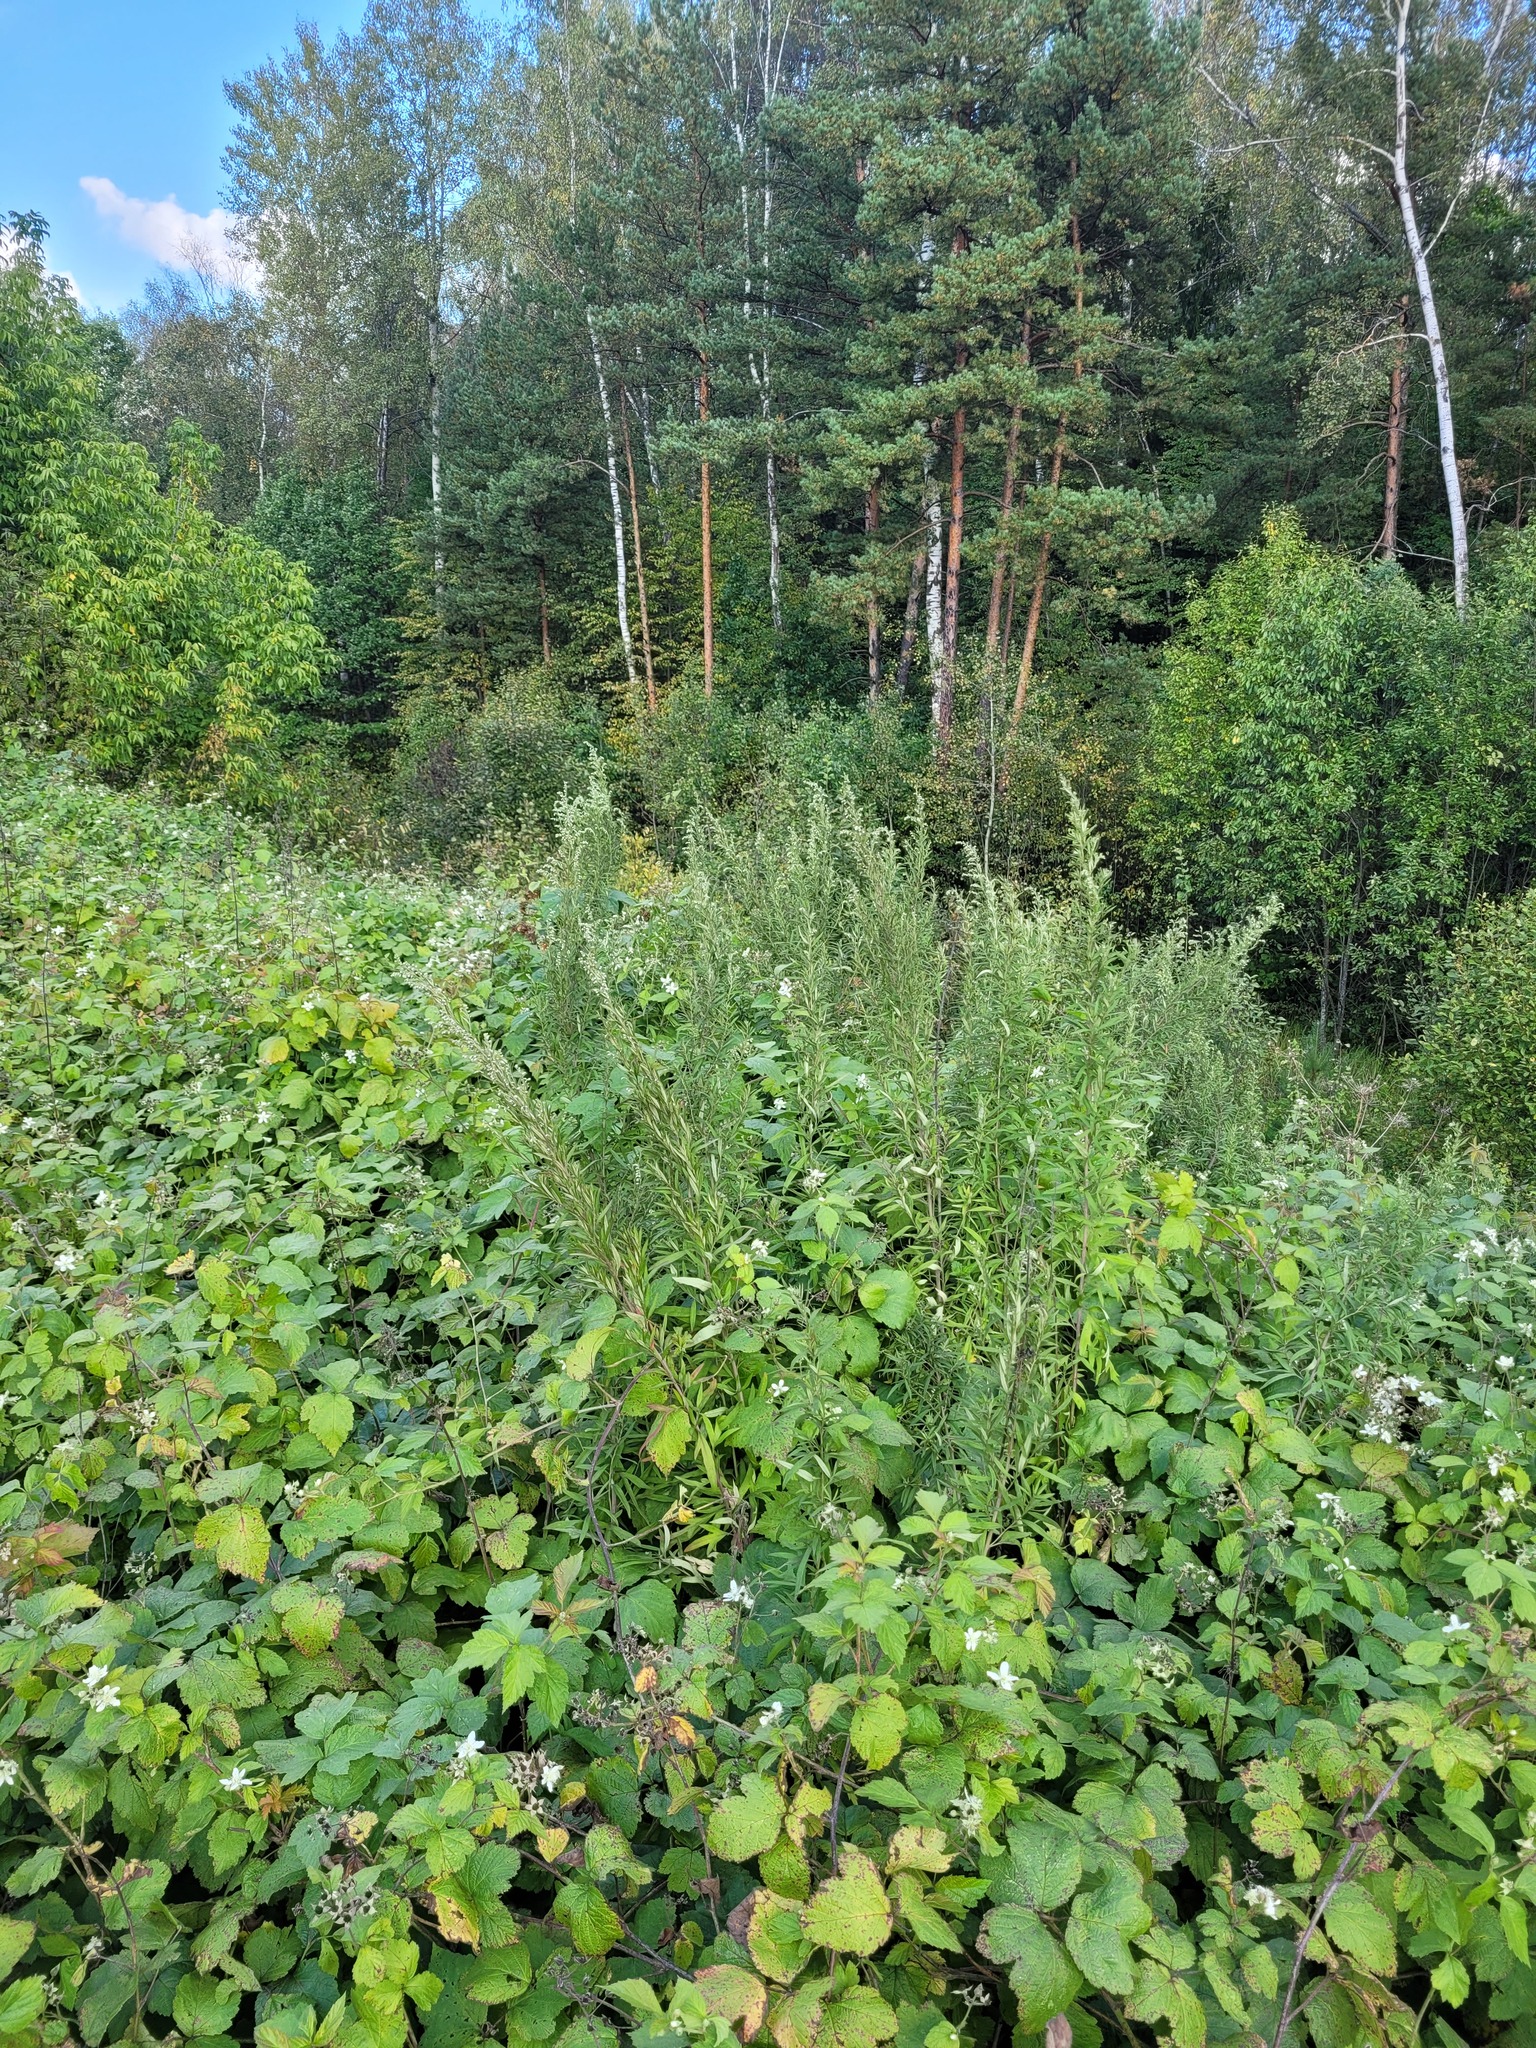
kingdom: Plantae
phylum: Tracheophyta
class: Magnoliopsida
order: Asterales
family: Asteraceae
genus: Artemisia
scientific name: Artemisia umbrosa
